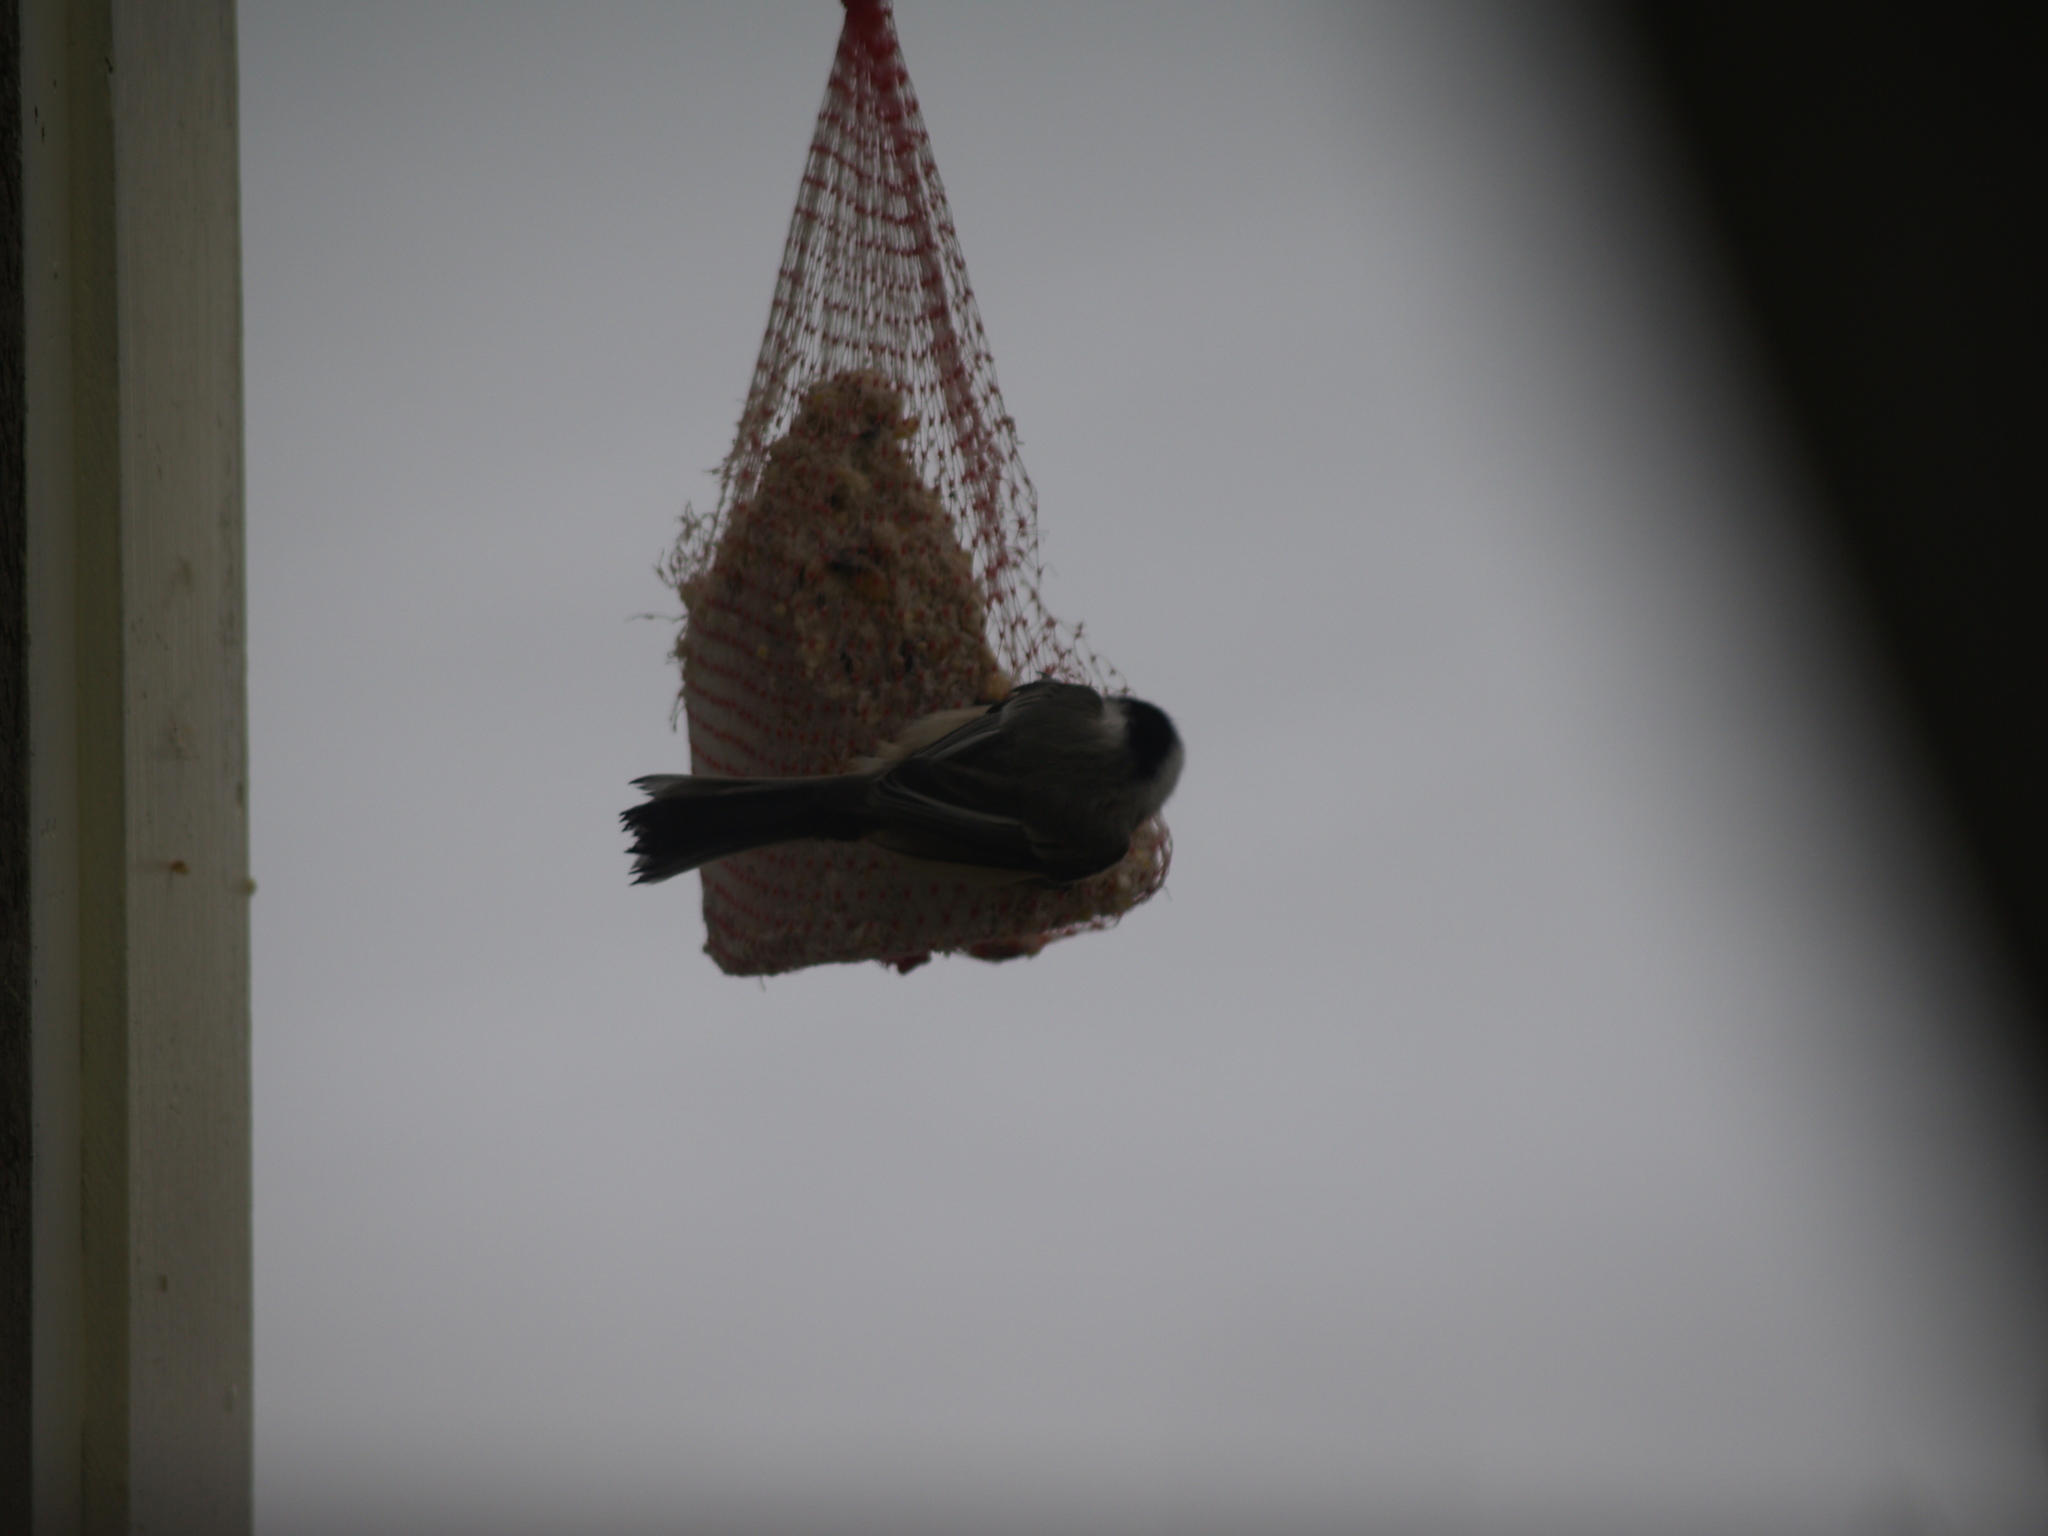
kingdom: Animalia
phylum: Chordata
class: Aves
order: Passeriformes
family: Paridae
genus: Poecile
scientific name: Poecile atricapillus
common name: Black-capped chickadee
